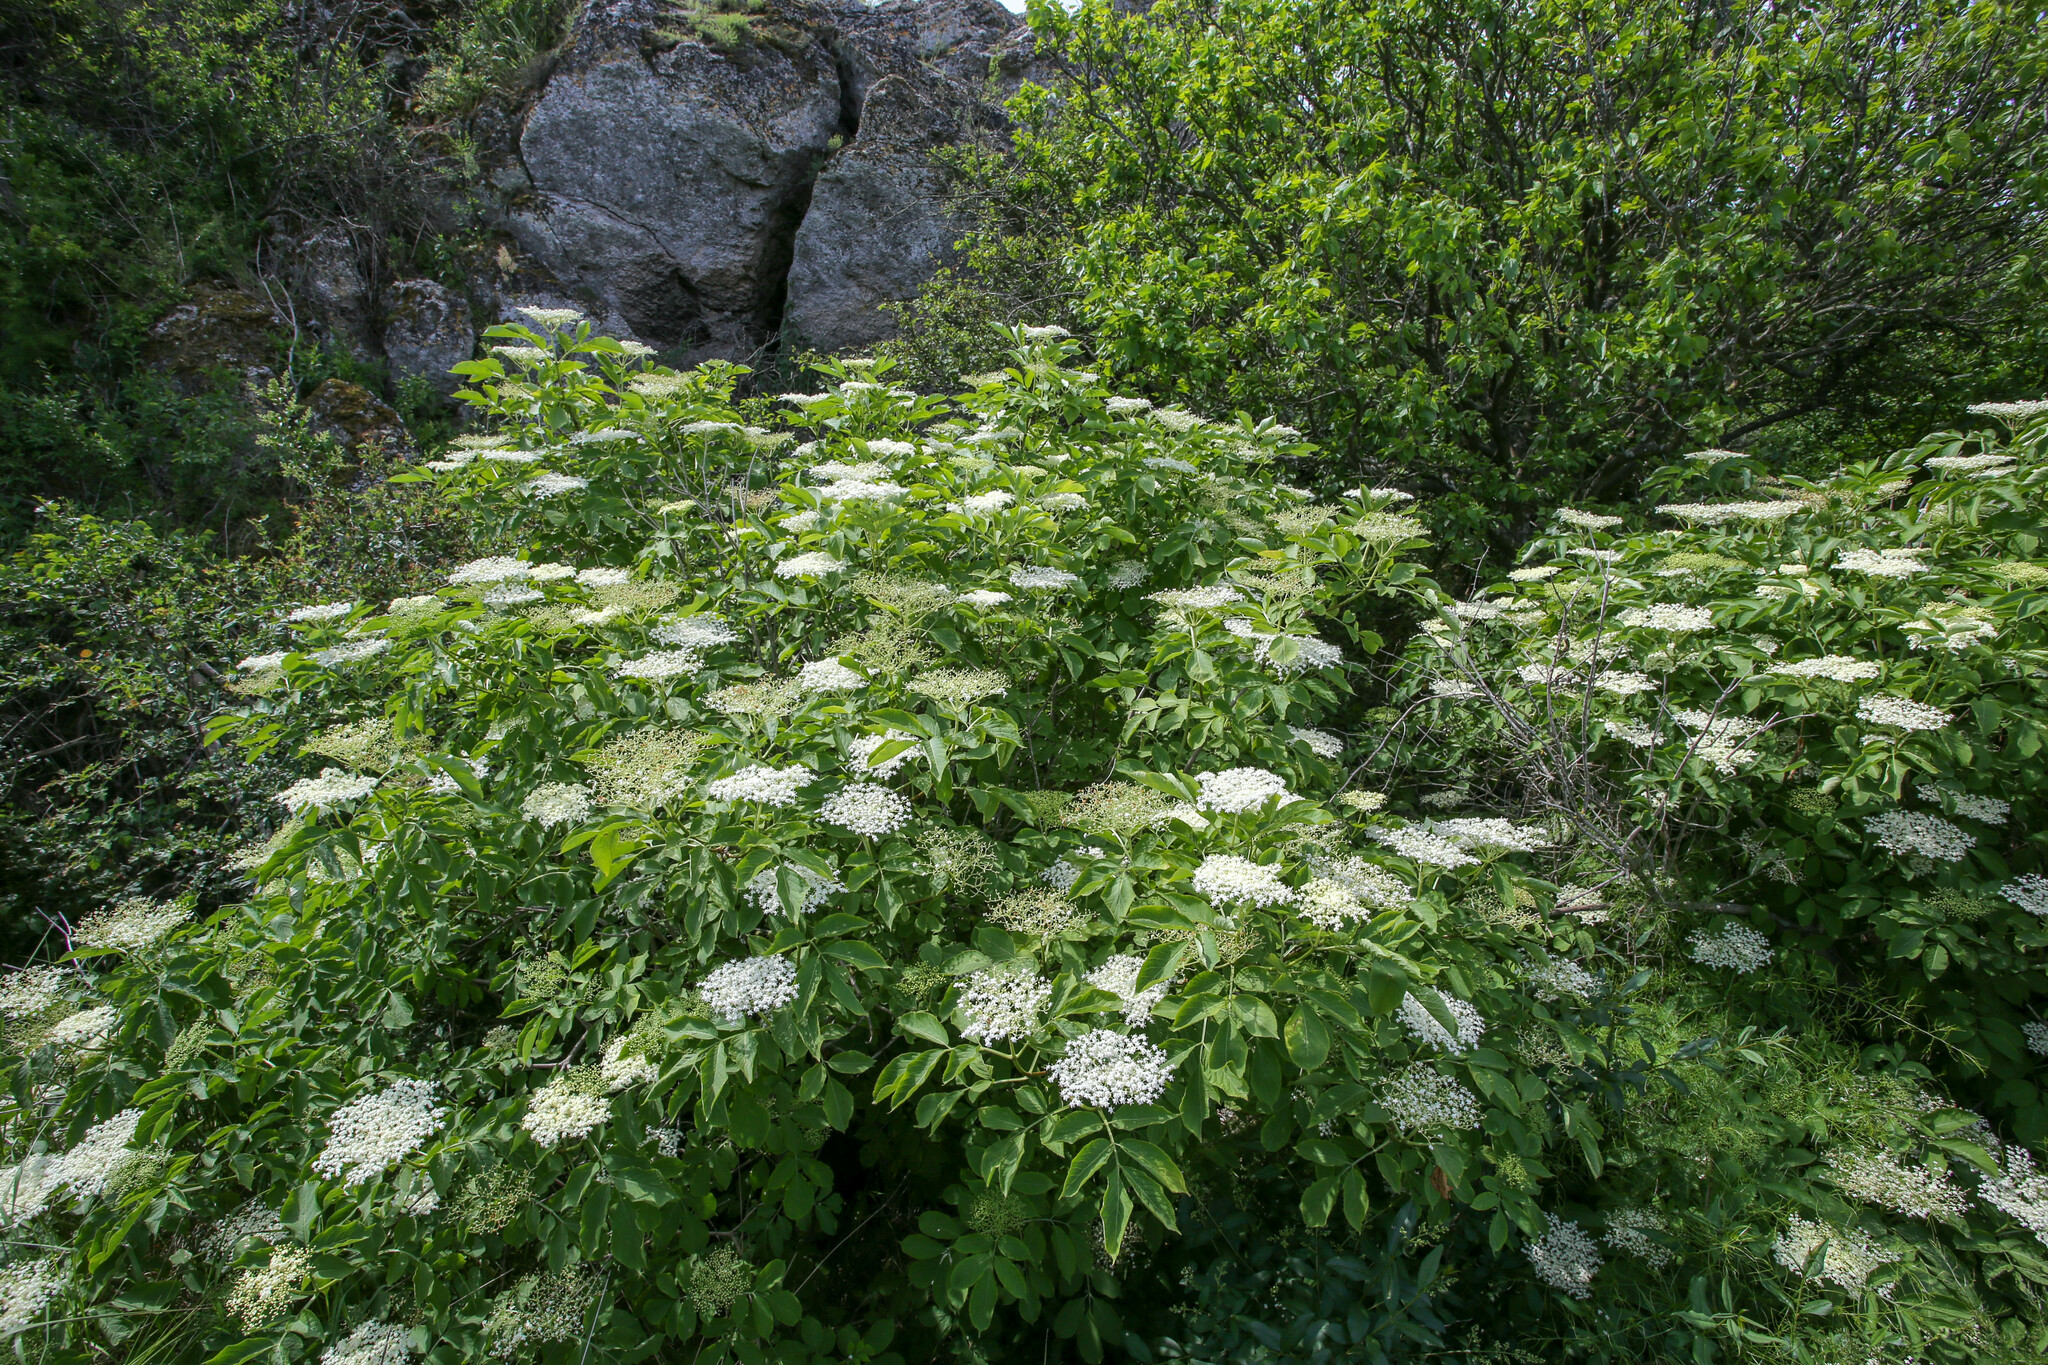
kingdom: Plantae
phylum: Tracheophyta
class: Magnoliopsida
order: Dipsacales
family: Viburnaceae
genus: Sambucus
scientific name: Sambucus nigra
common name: Elder
